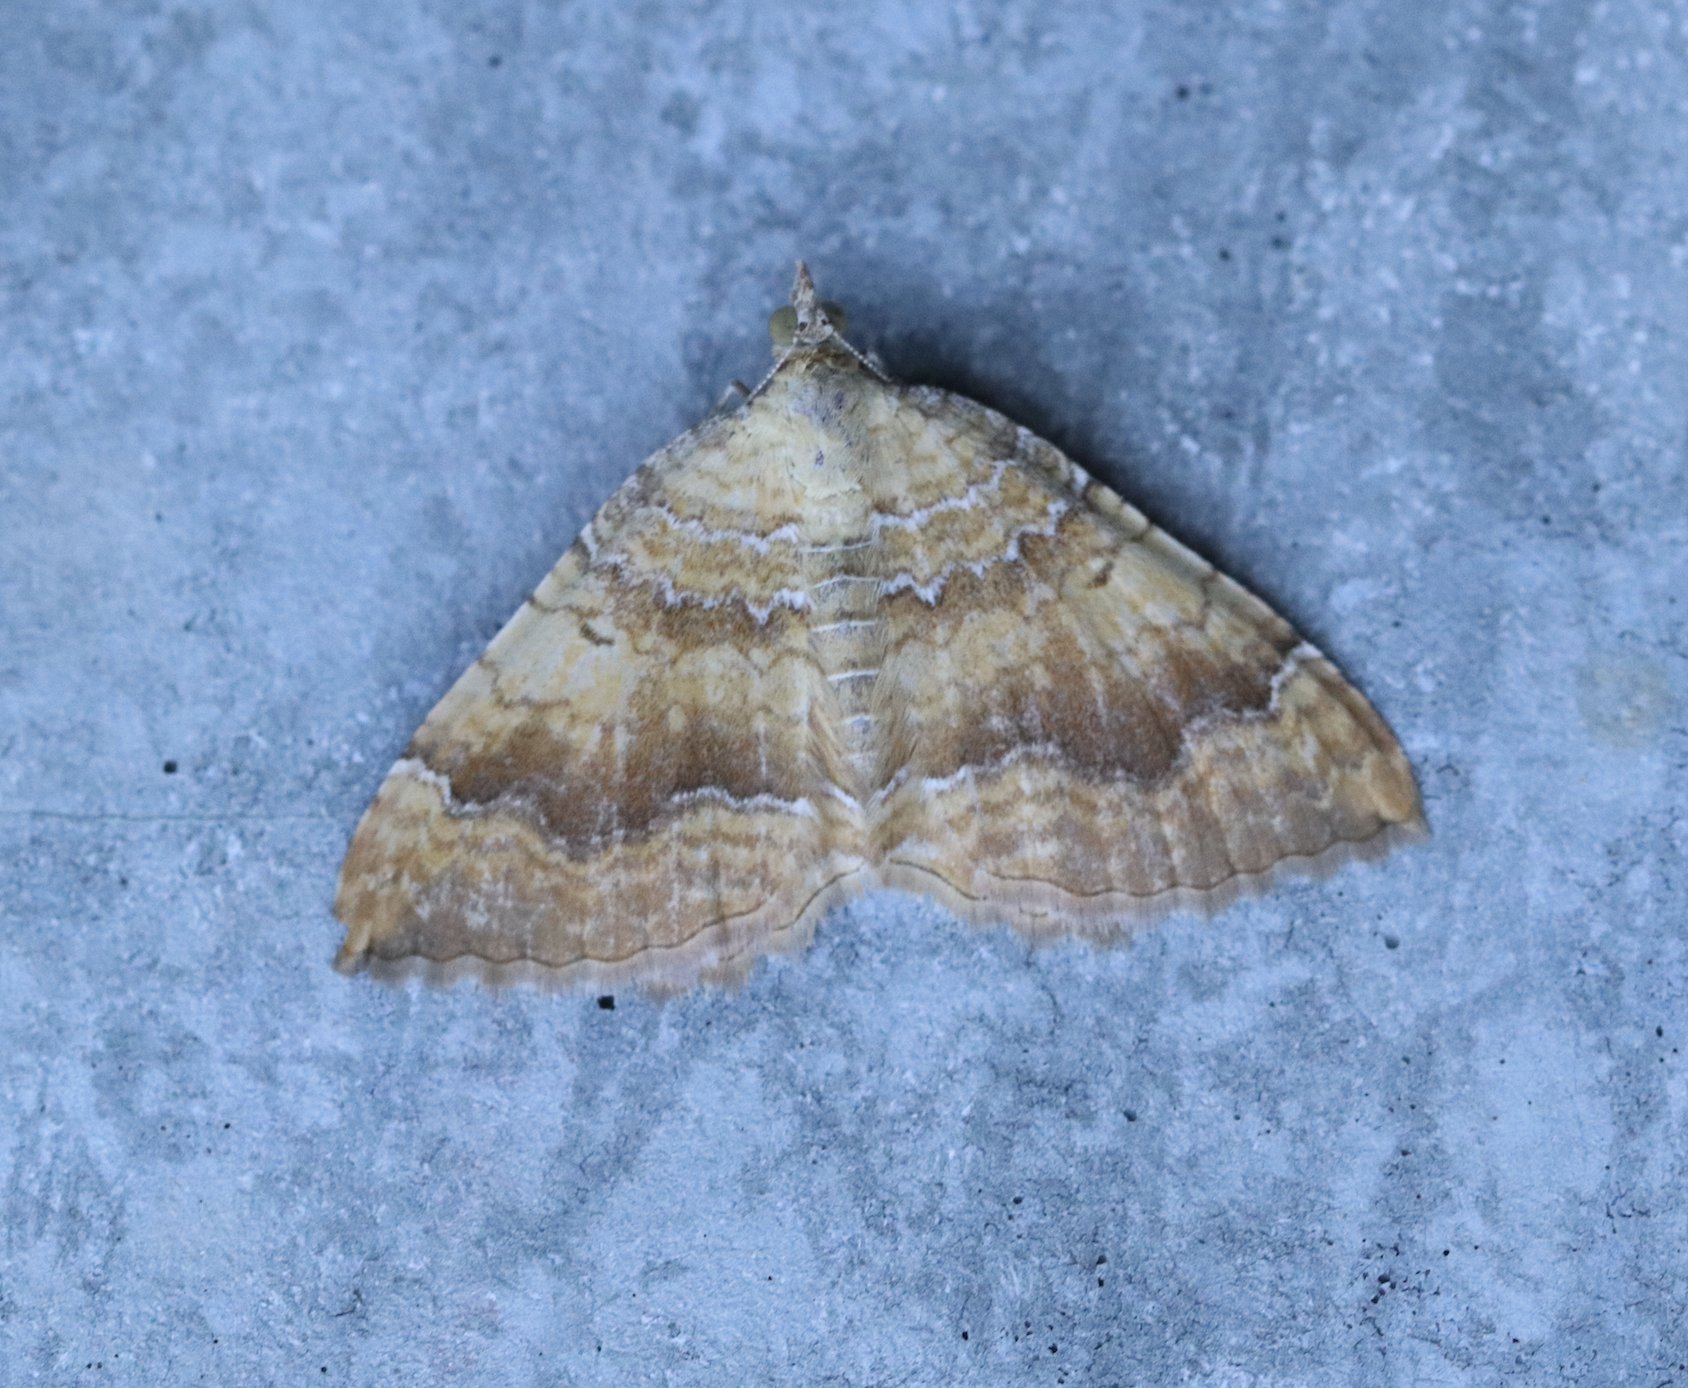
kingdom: Animalia
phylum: Arthropoda
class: Insecta
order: Lepidoptera
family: Geometridae
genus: Camptogramma
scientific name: Camptogramma bilineata
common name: Yellow shell
